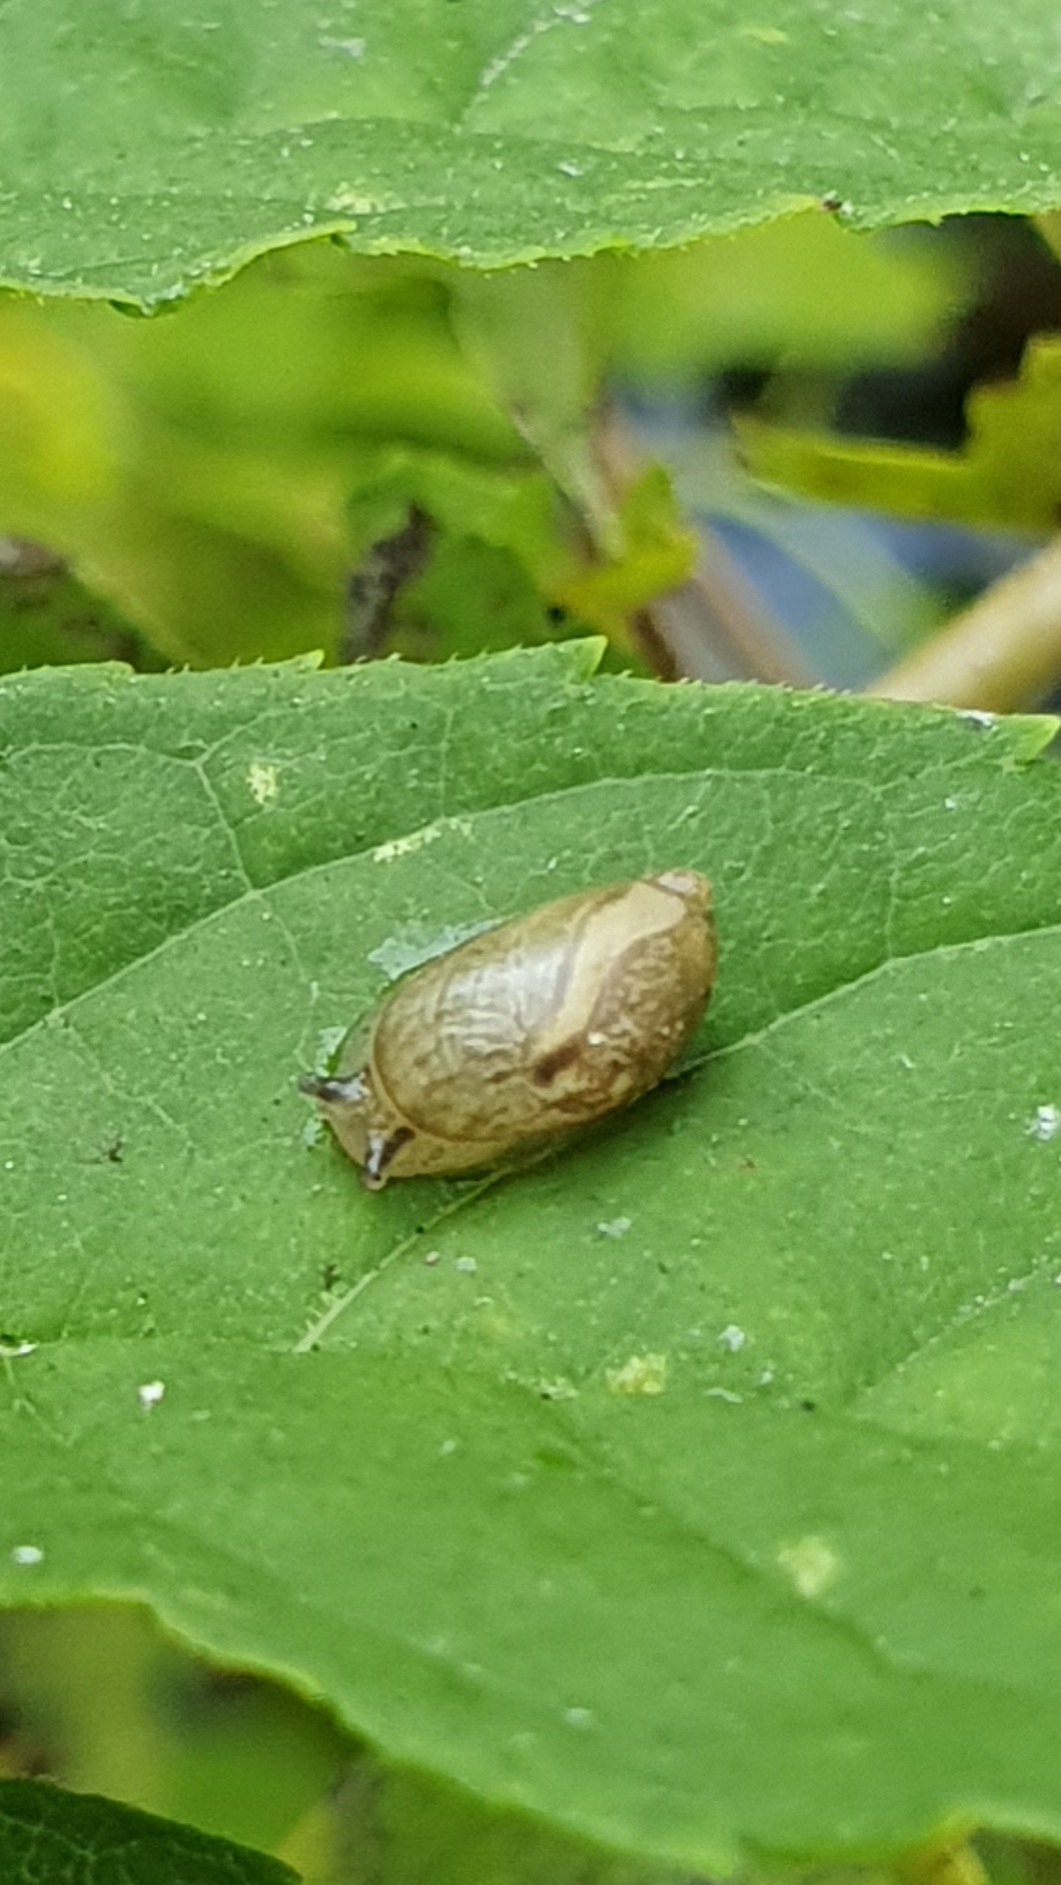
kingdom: Animalia
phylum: Mollusca
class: Gastropoda
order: Stylommatophora
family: Succineidae
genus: Succinea
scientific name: Succinea putris
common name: European ambersnail
